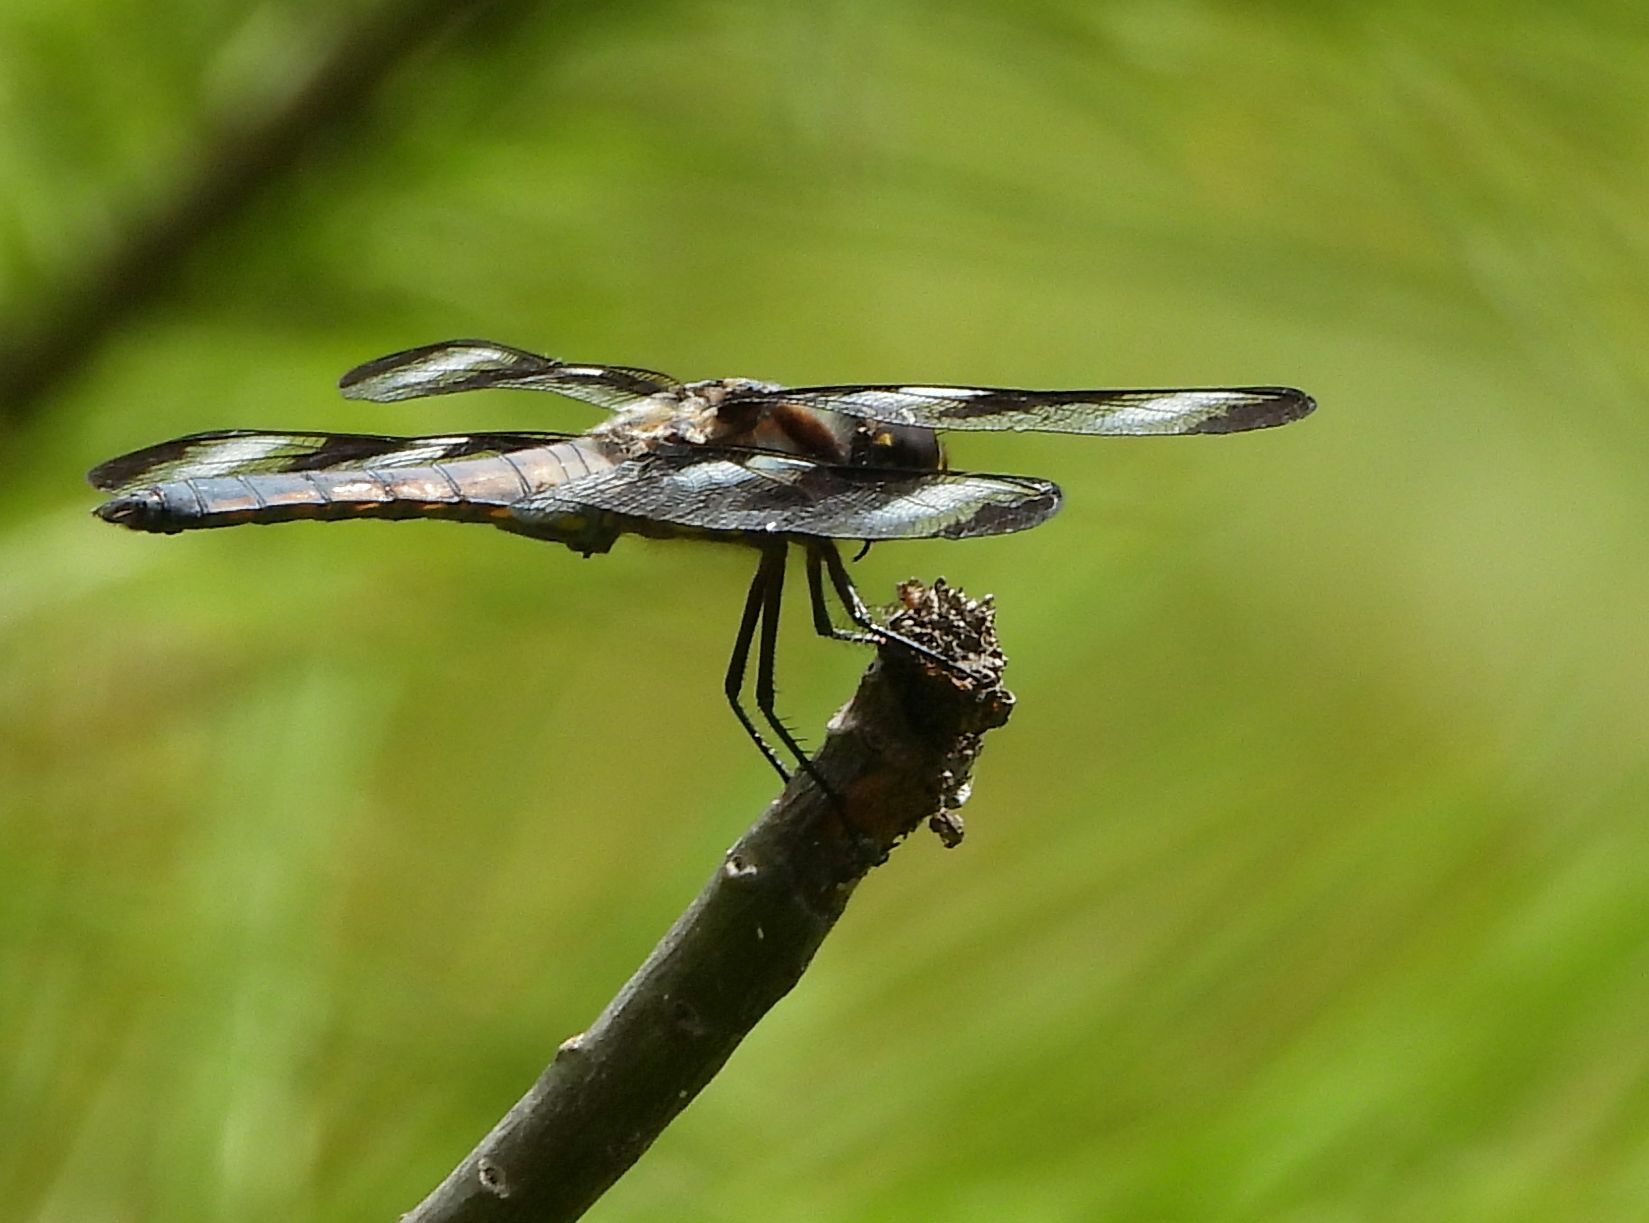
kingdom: Animalia
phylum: Arthropoda
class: Insecta
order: Odonata
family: Libellulidae
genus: Libellula
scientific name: Libellula pulchella
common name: Twelve-spotted skimmer
